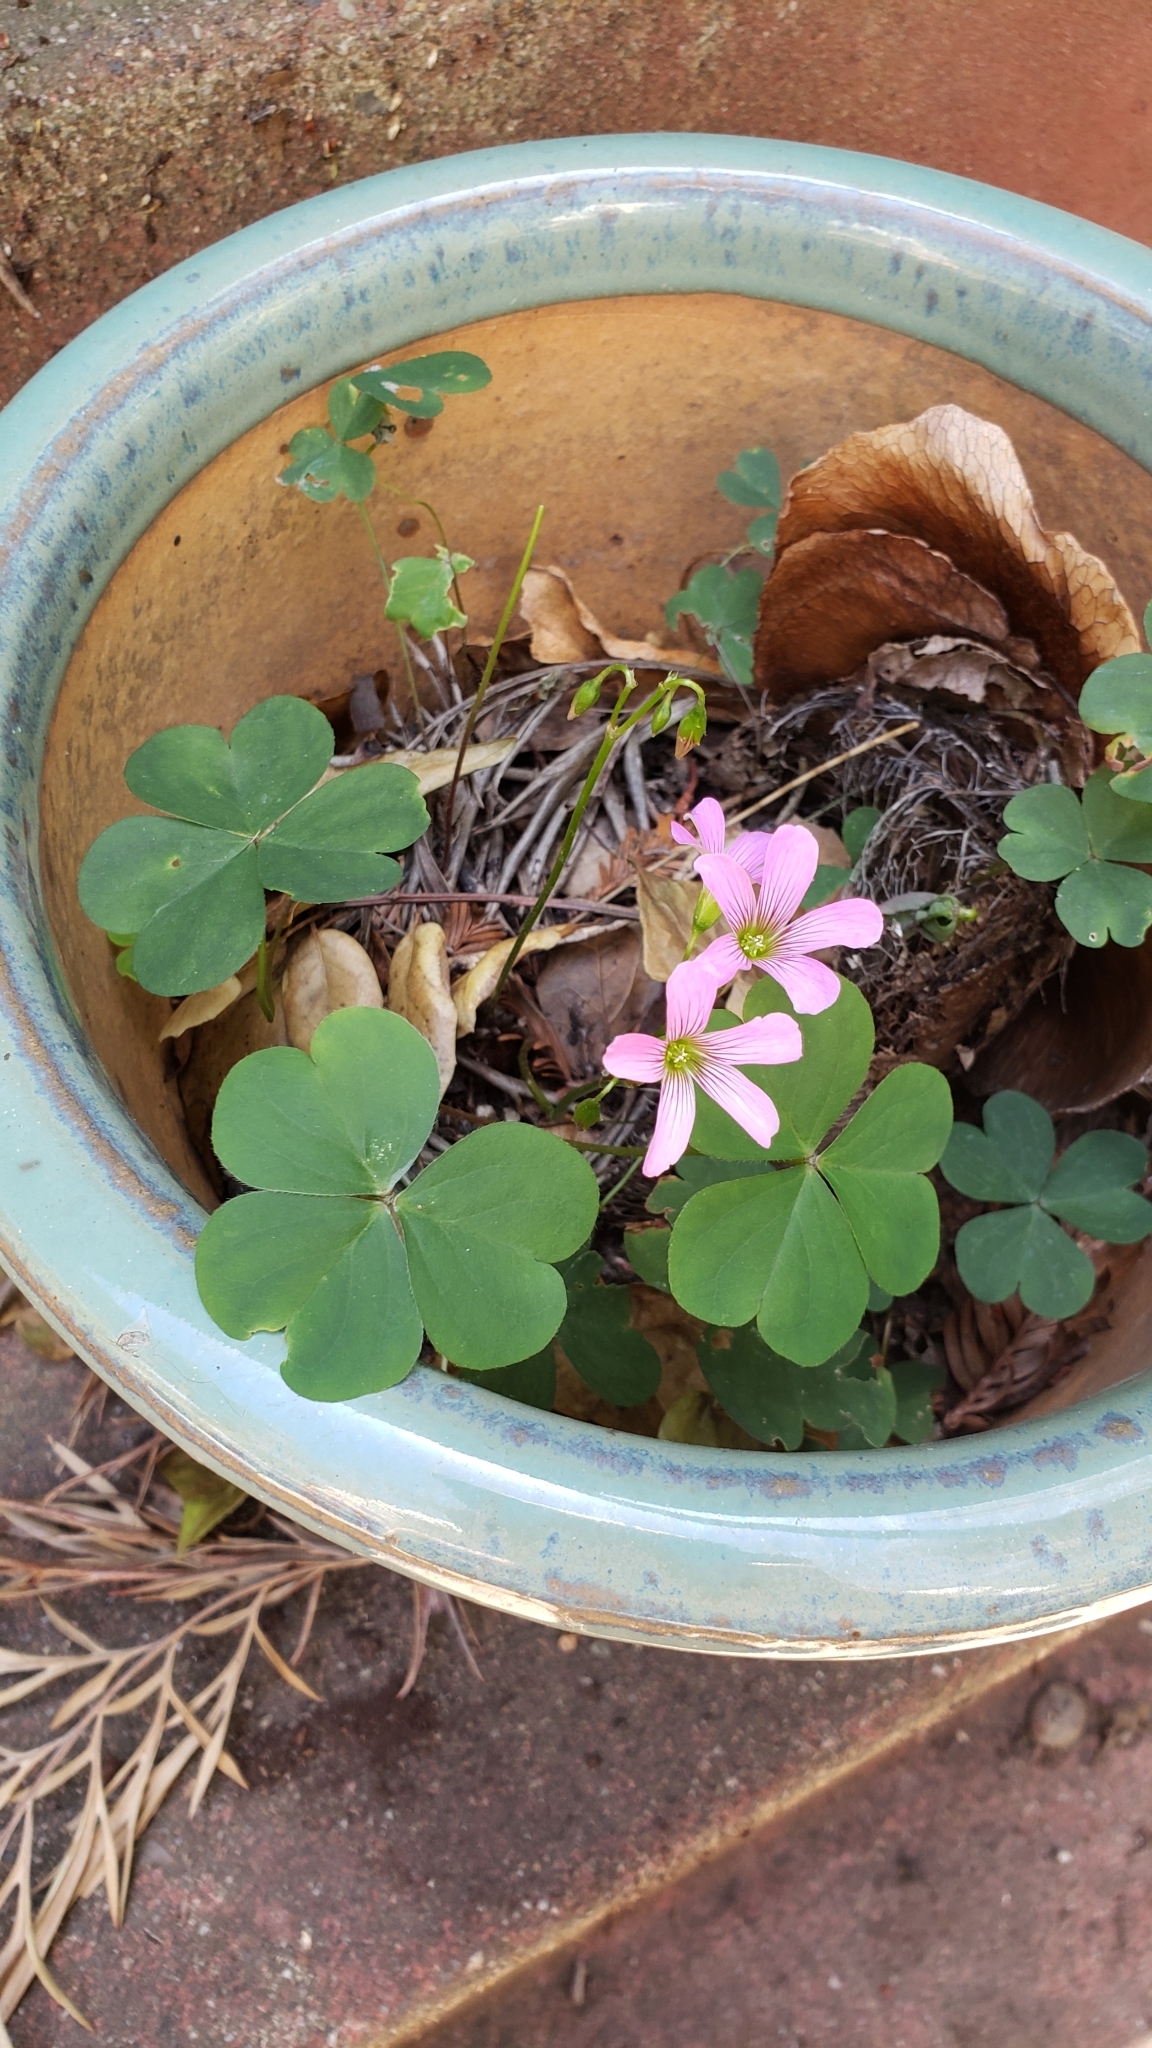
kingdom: Plantae
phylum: Tracheophyta
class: Magnoliopsida
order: Oxalidales
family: Oxalidaceae
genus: Oxalis
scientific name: Oxalis debilis
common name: Large-flowered pink-sorrel
